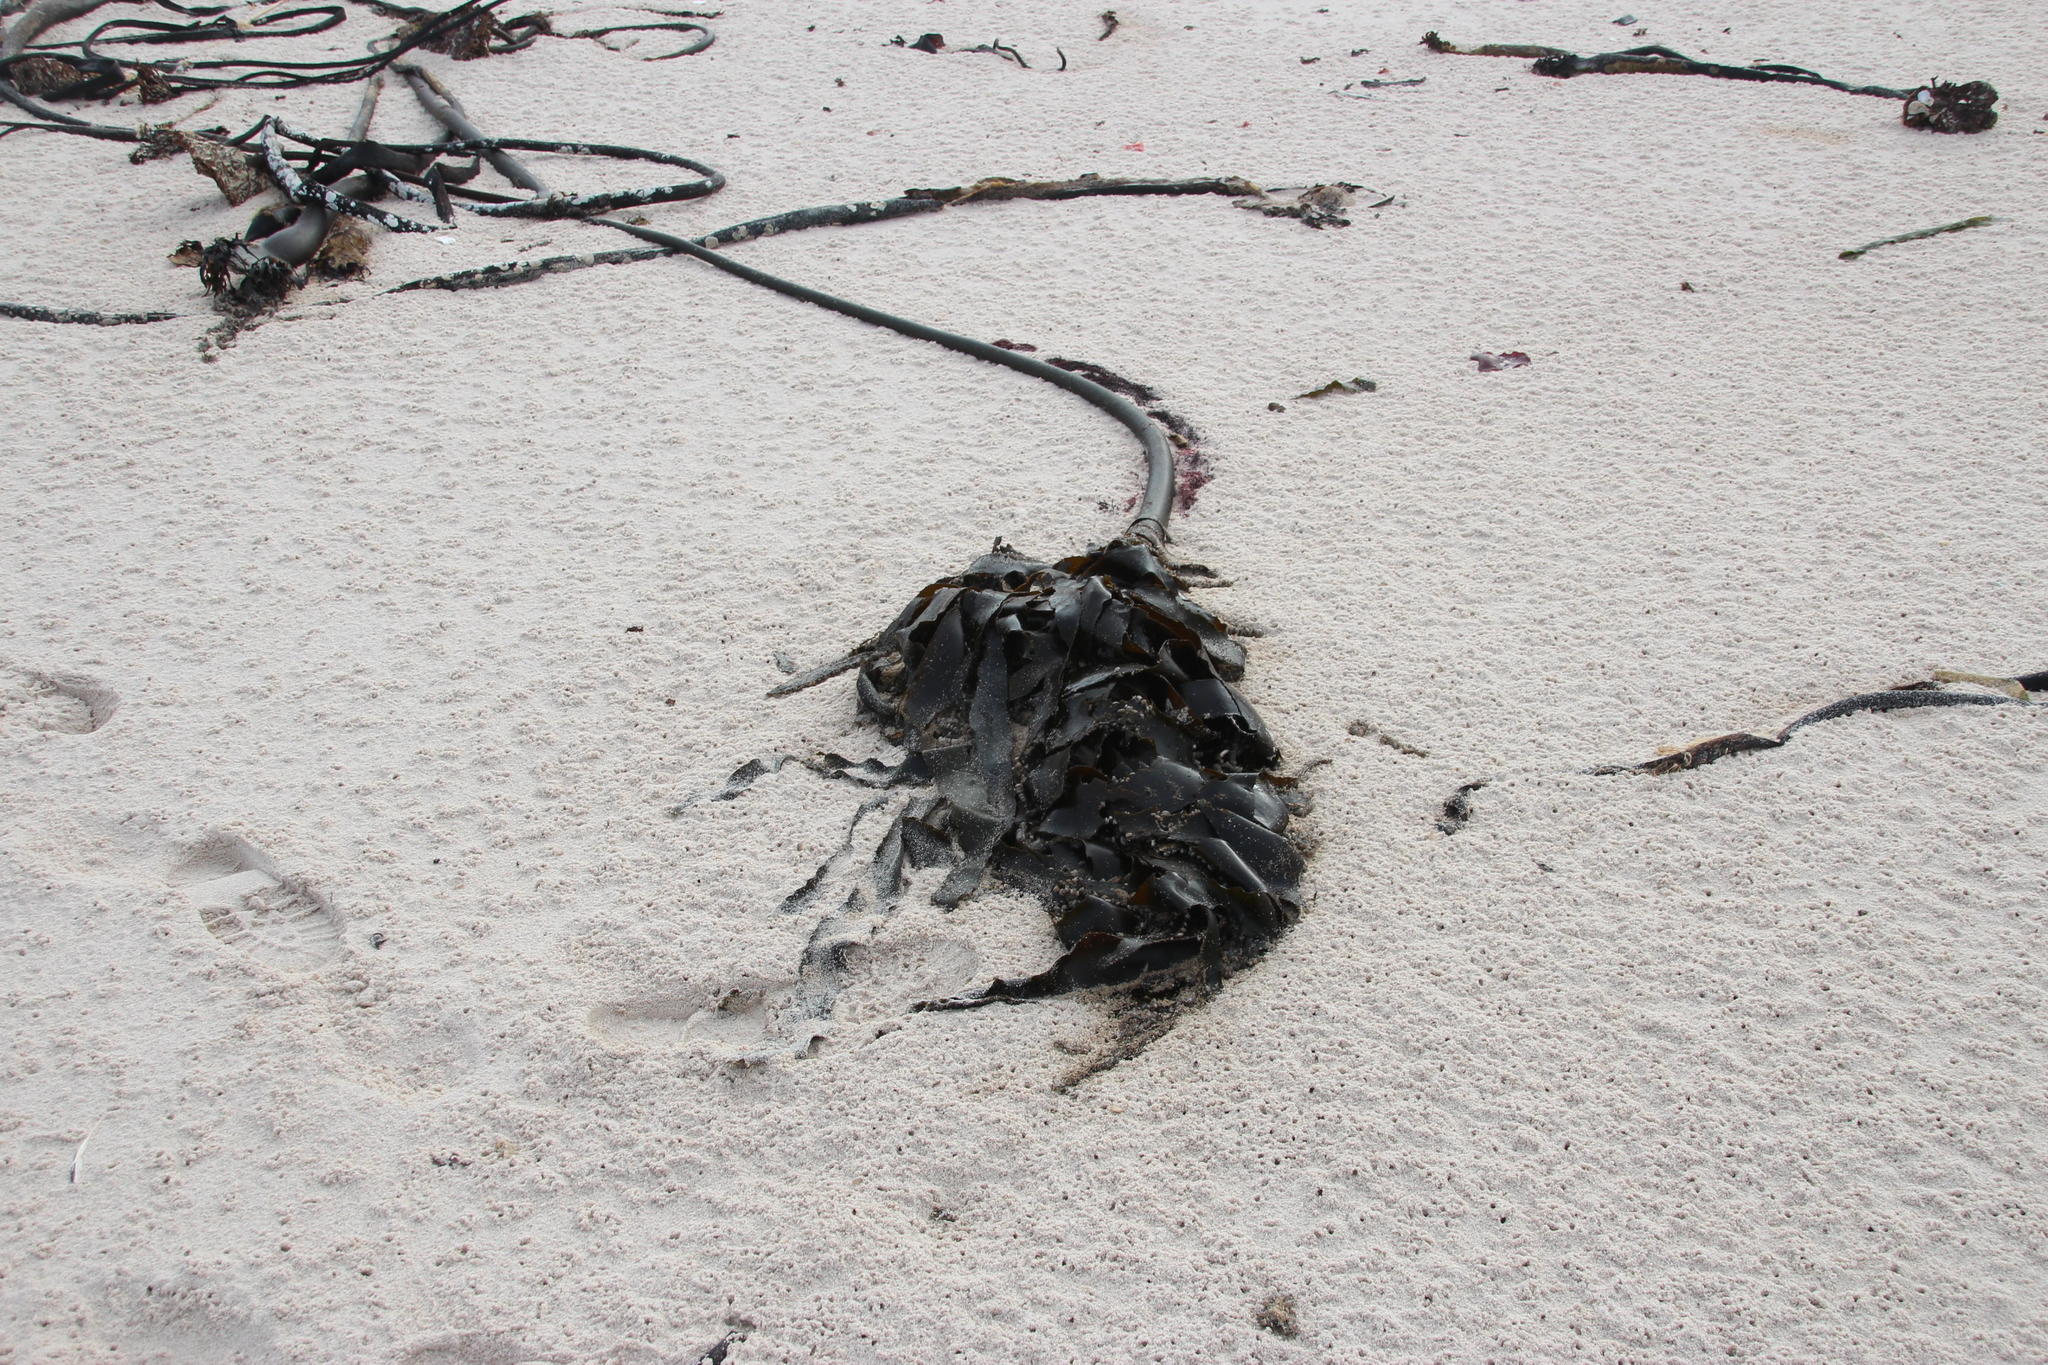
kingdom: Chromista
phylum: Ochrophyta
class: Phaeophyceae
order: Laminariales
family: Lessoniaceae
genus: Ecklonia
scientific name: Ecklonia
